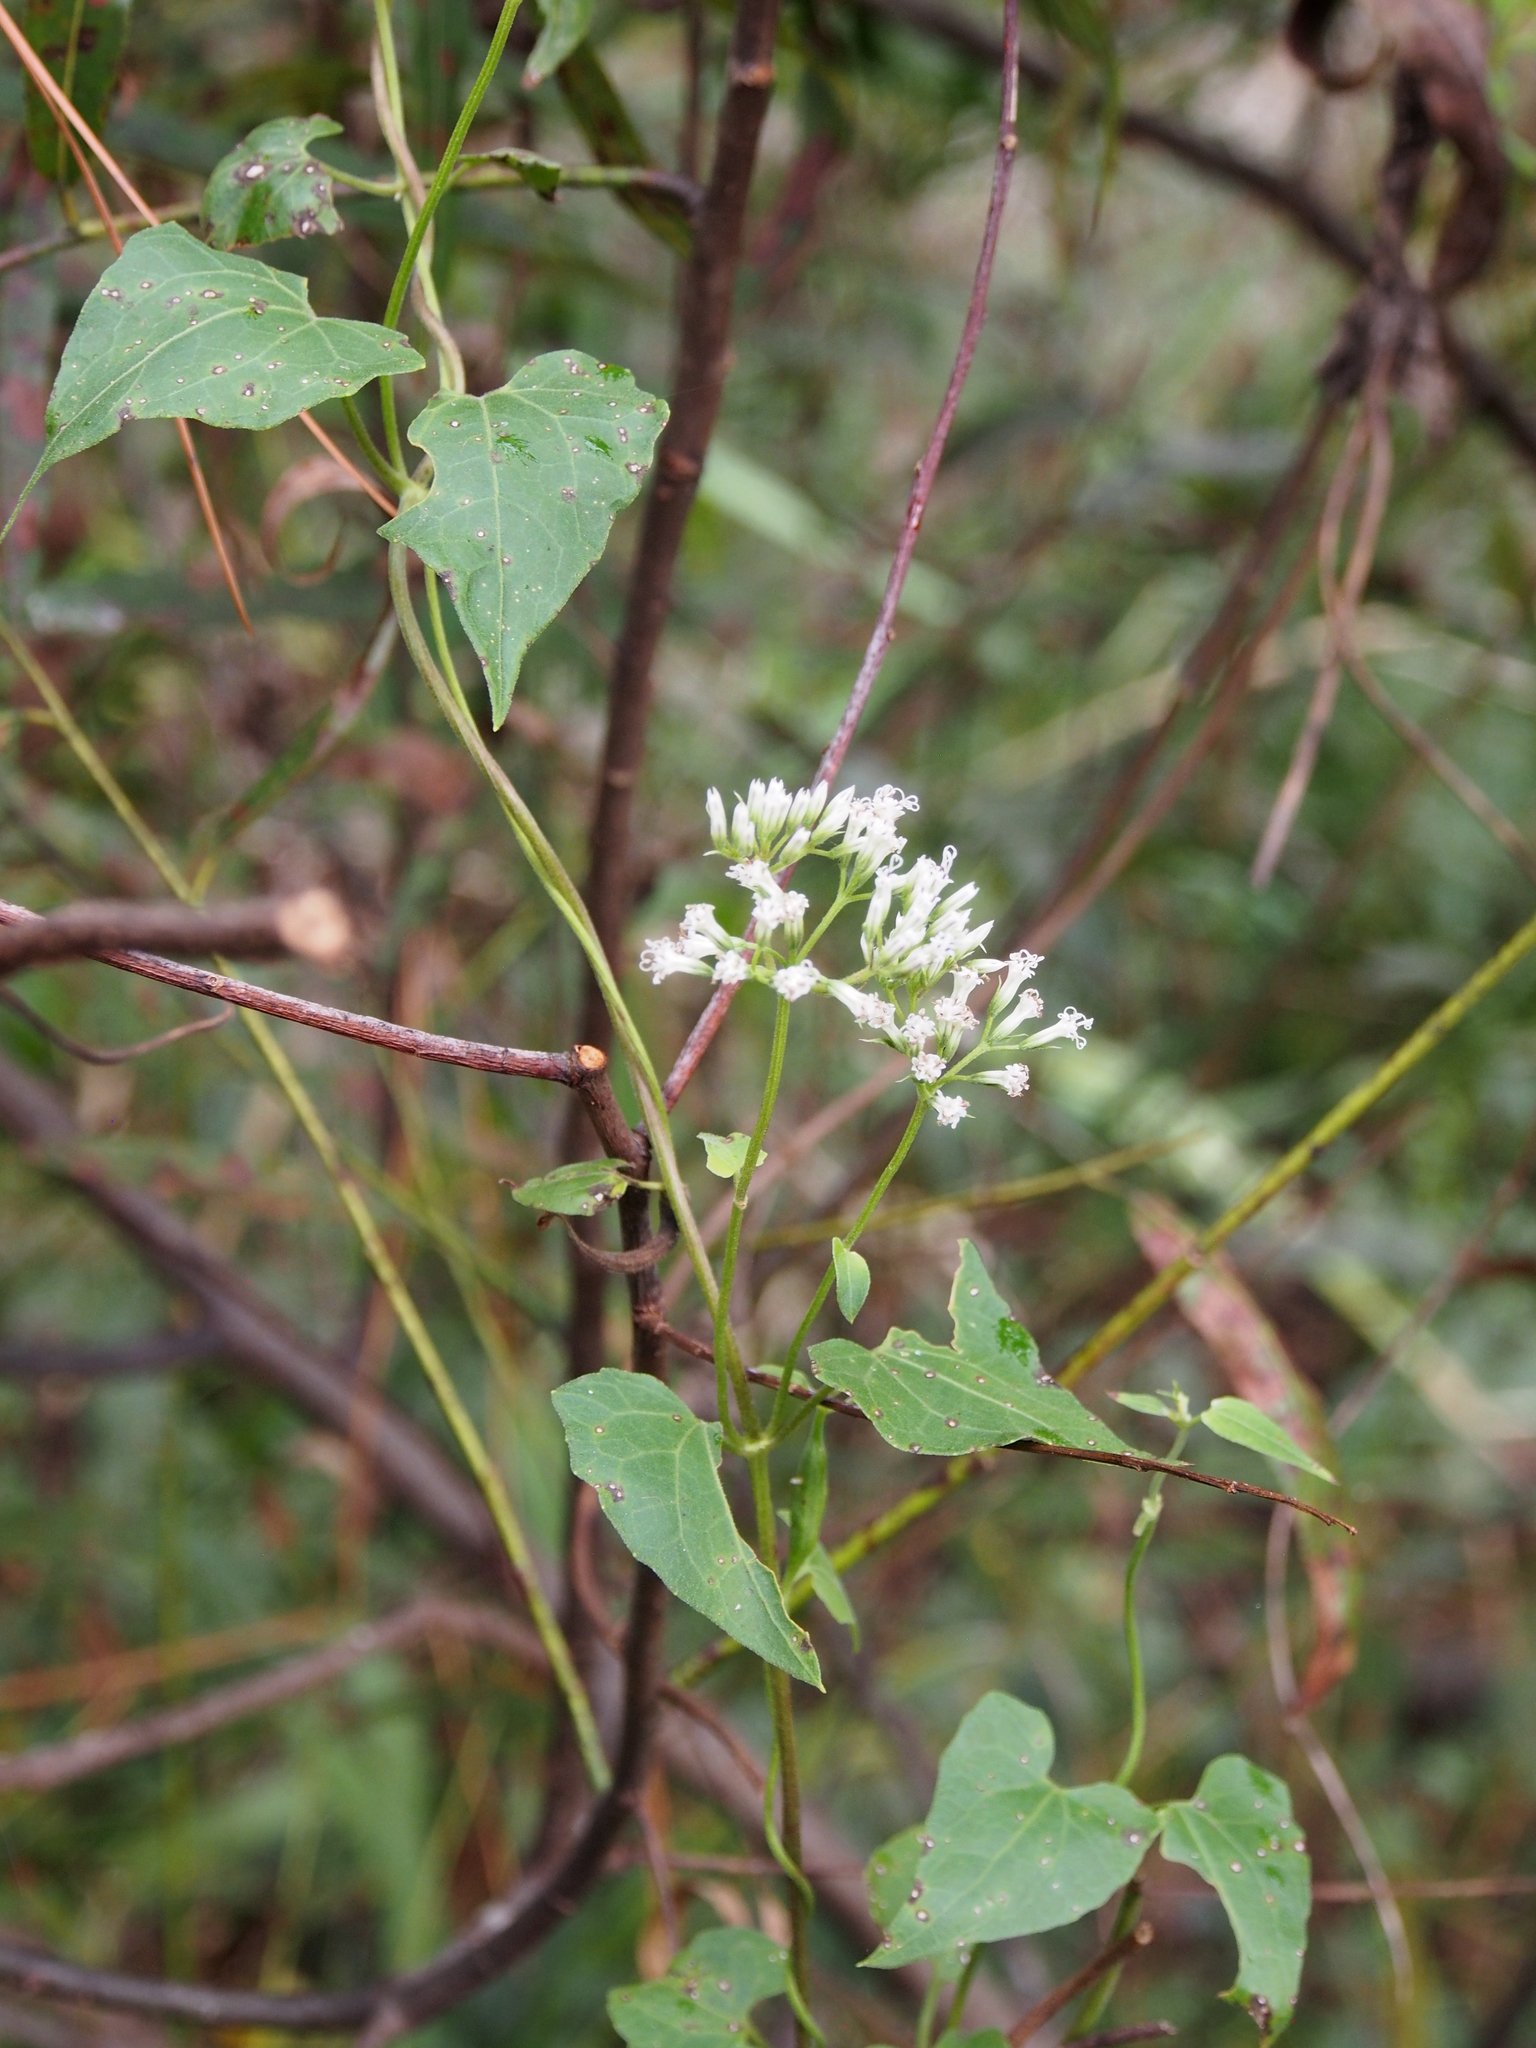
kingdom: Plantae
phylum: Tracheophyta
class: Magnoliopsida
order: Asterales
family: Asteraceae
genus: Mikania
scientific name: Mikania scandens
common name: Climbing hempvine
